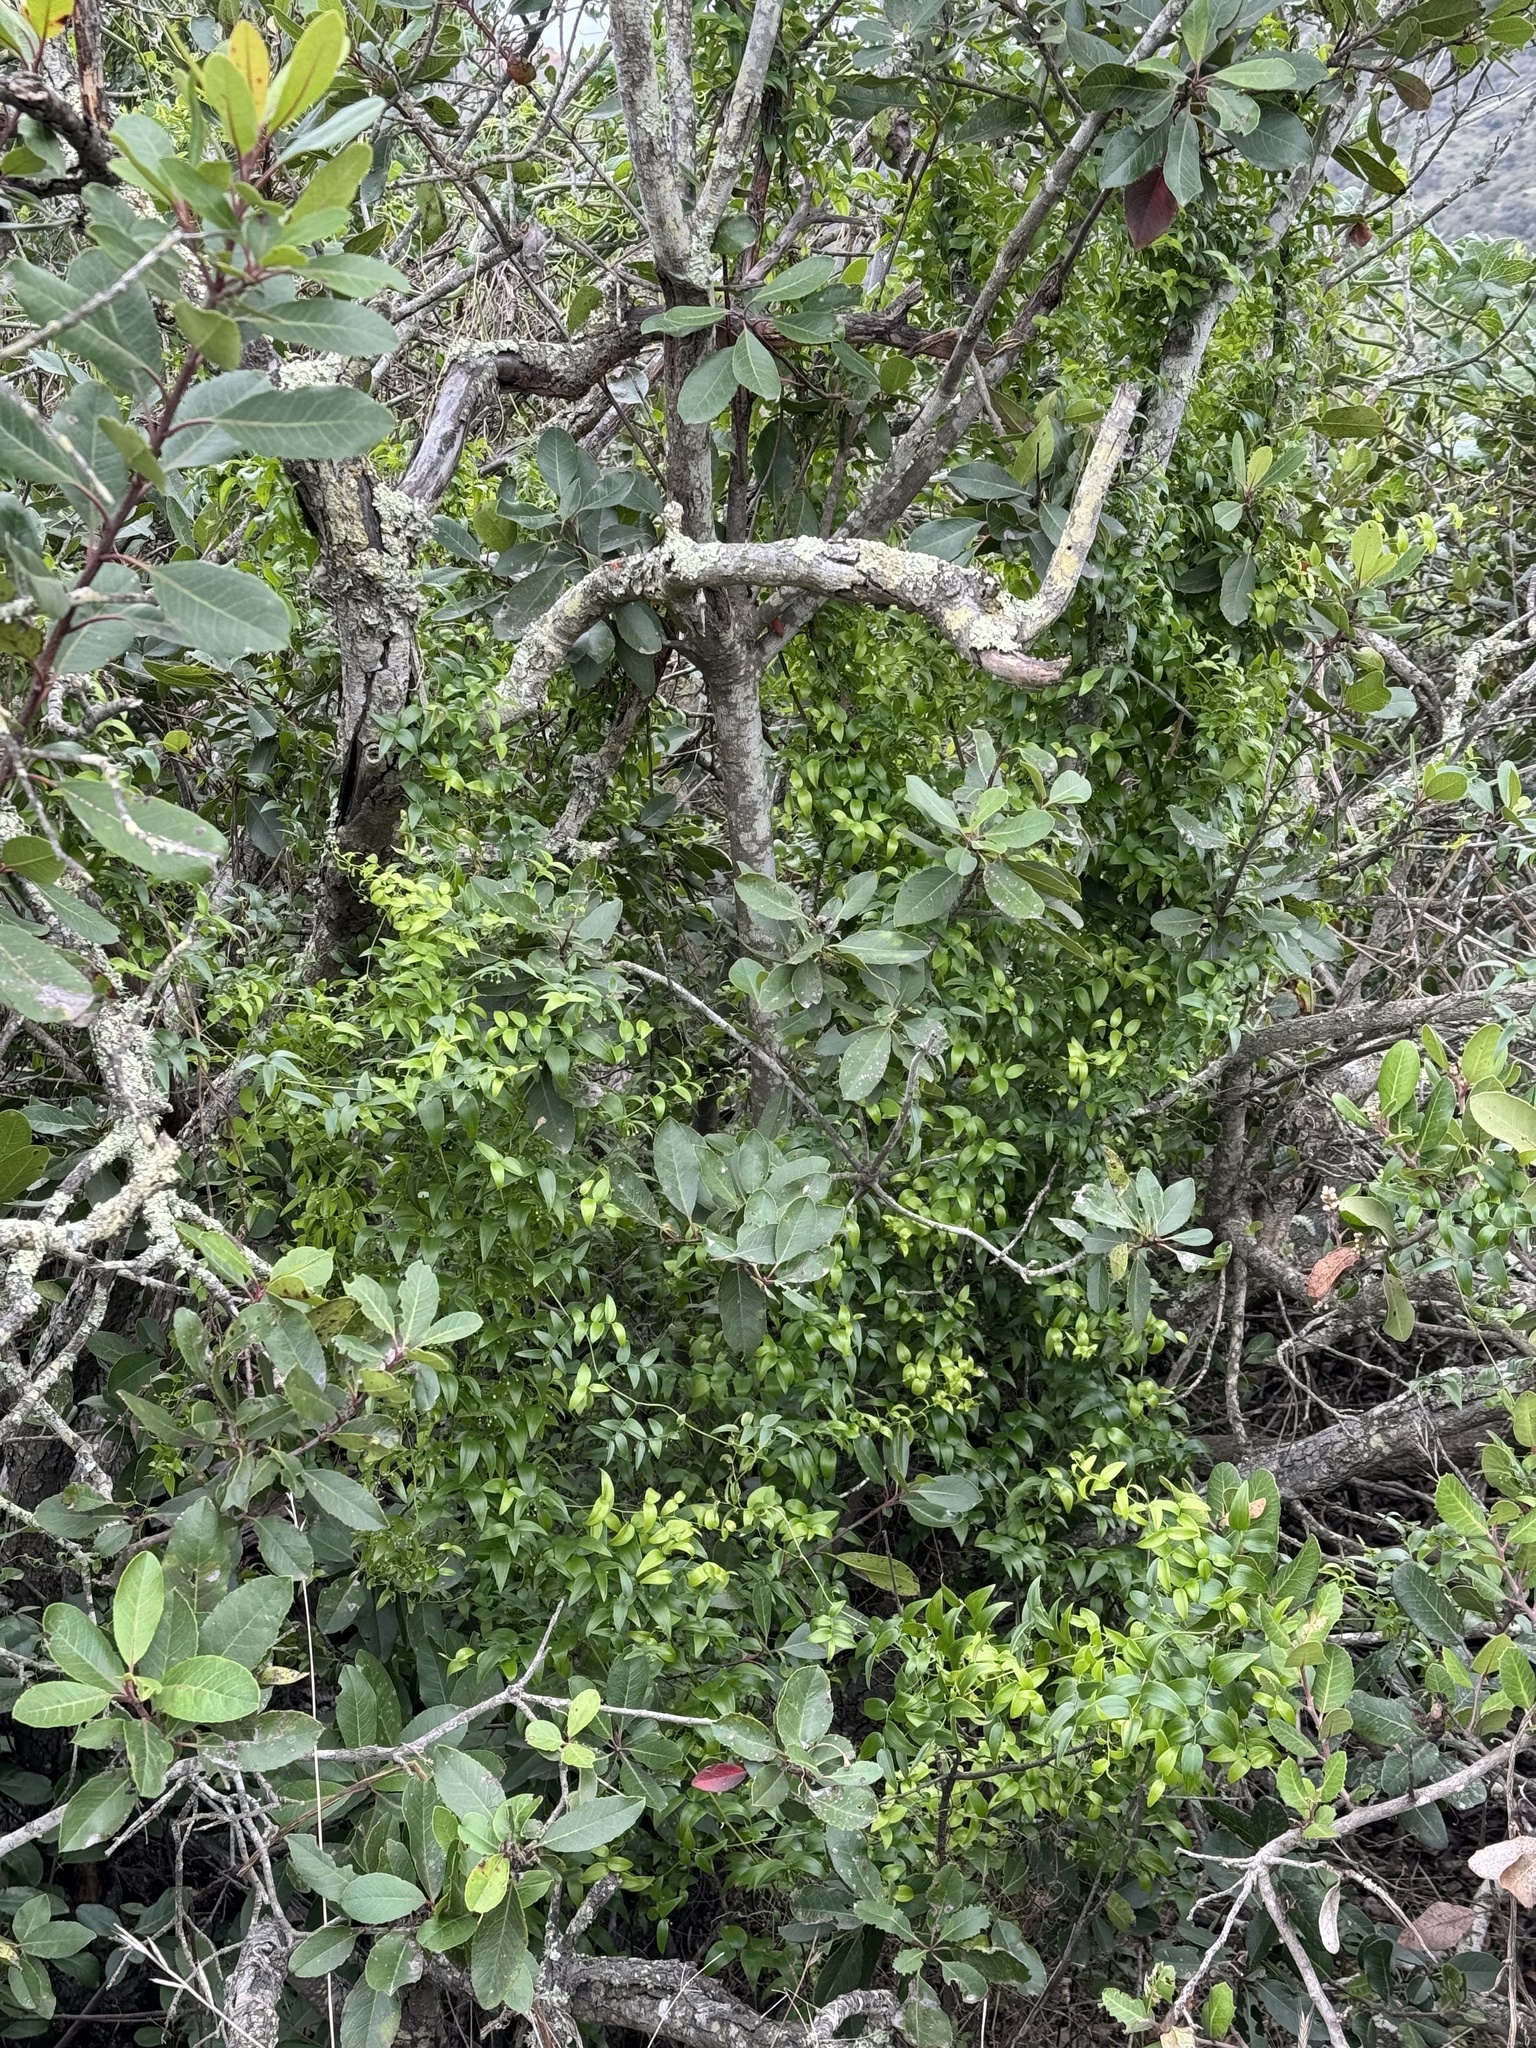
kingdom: Plantae
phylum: Tracheophyta
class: Liliopsida
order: Asparagales
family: Asparagaceae
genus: Asparagus
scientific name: Asparagus asparagoides
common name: African asparagus fern
